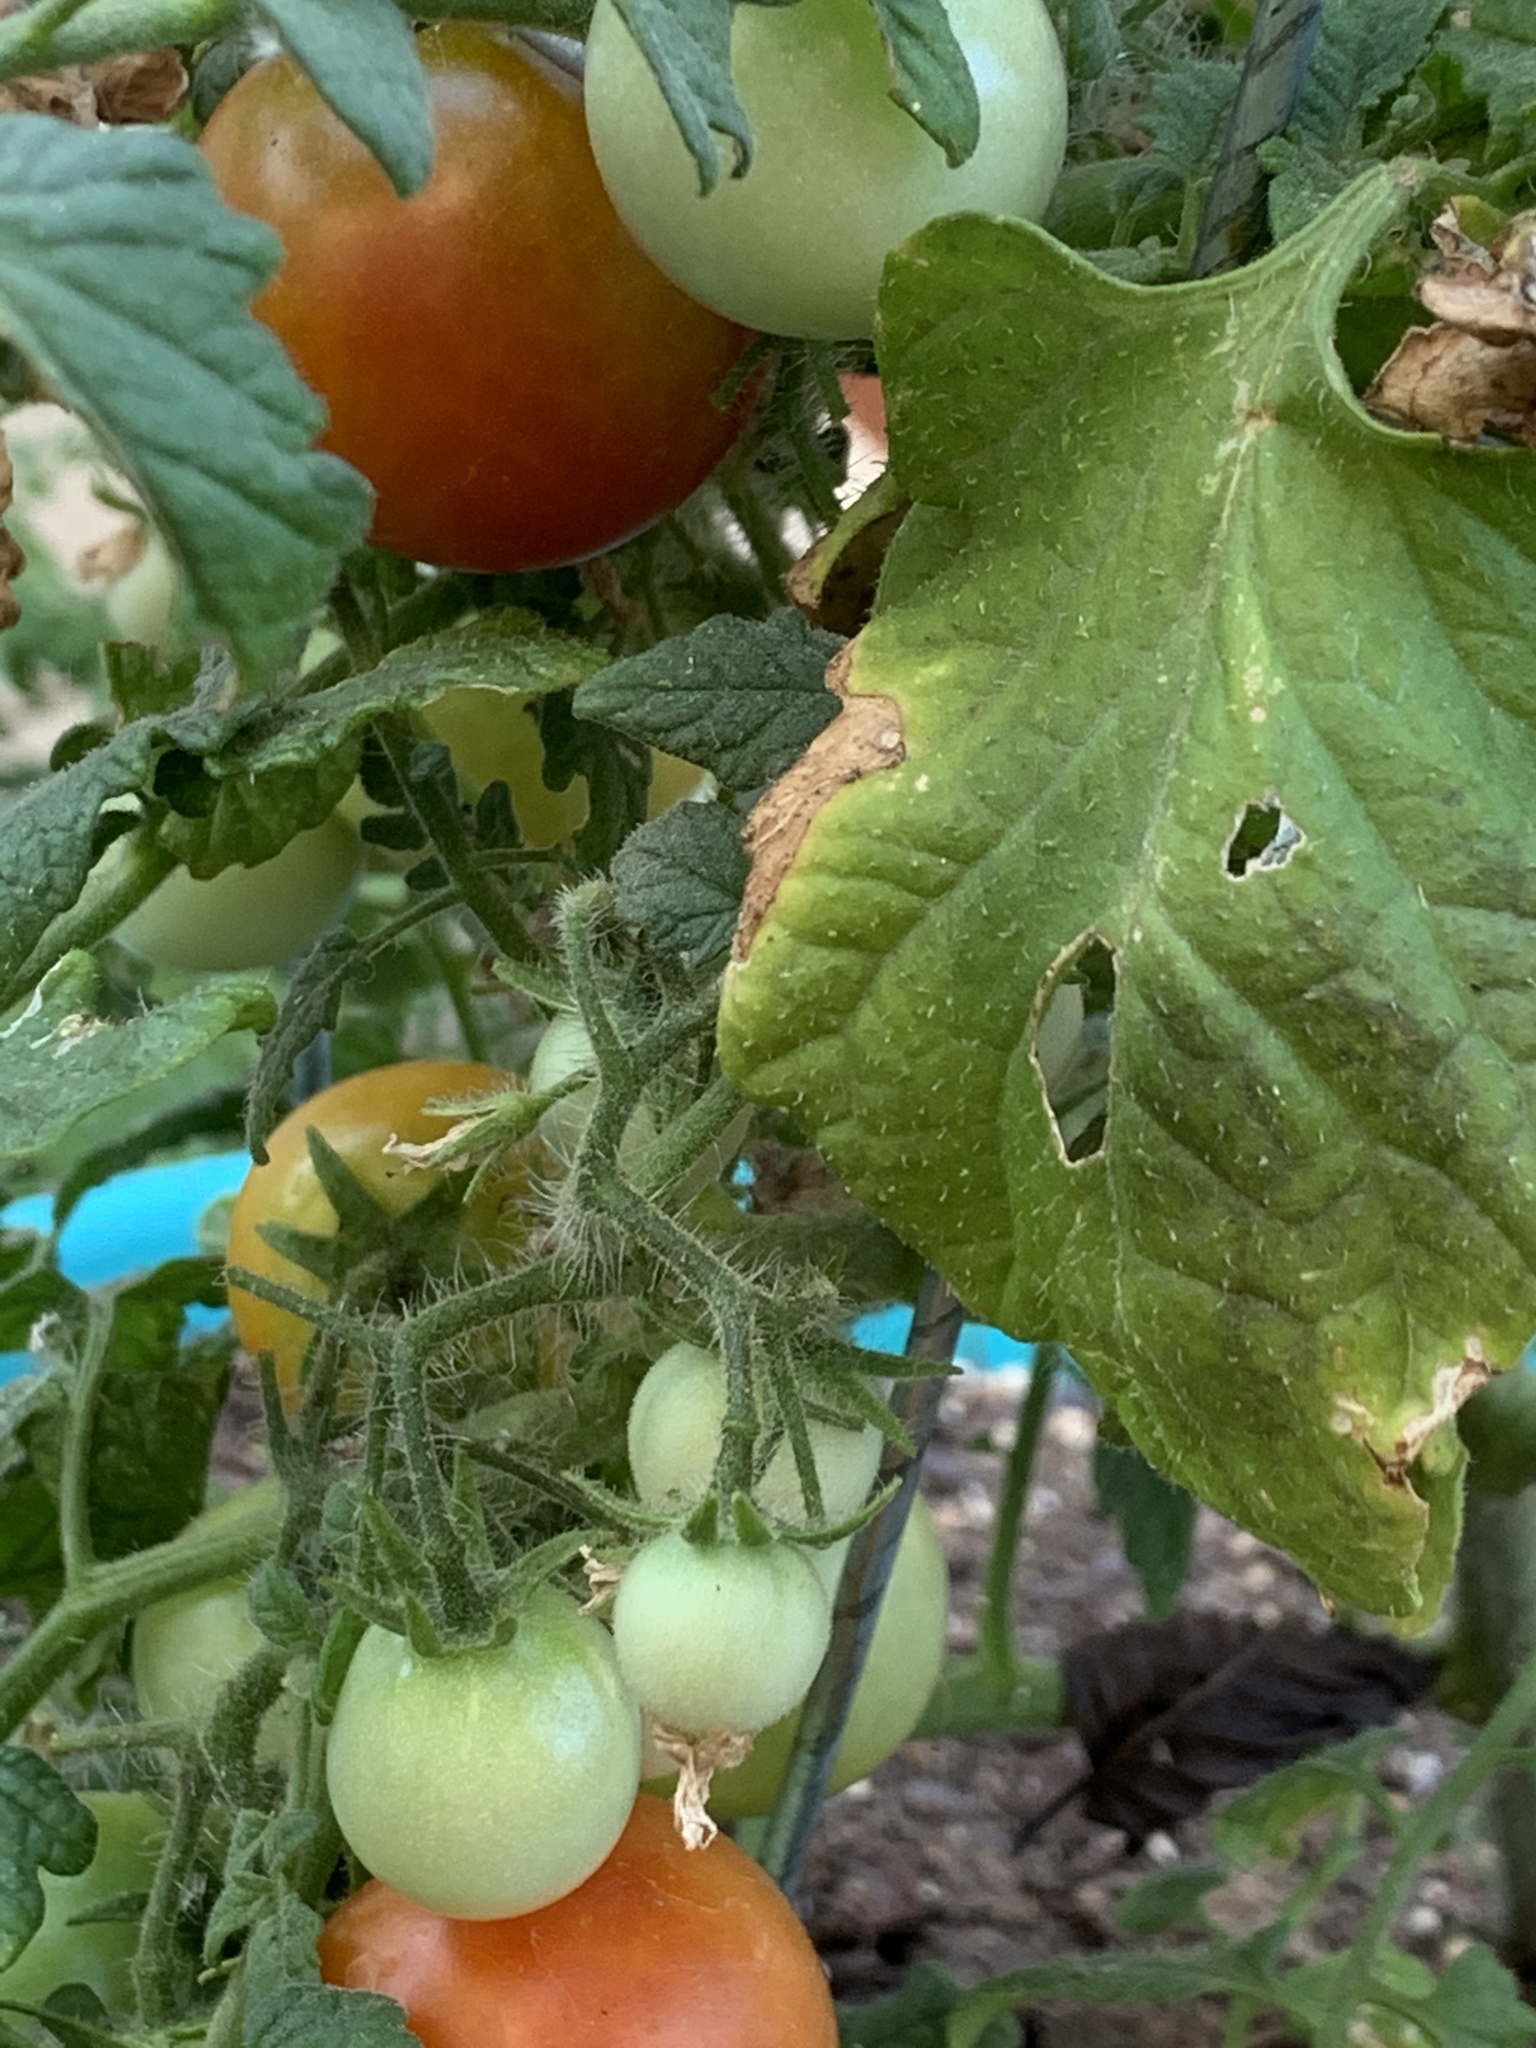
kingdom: Plantae
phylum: Tracheophyta
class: Magnoliopsida
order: Solanales
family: Solanaceae
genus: Solanum
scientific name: Solanum lycopersicum
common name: Garden tomato
